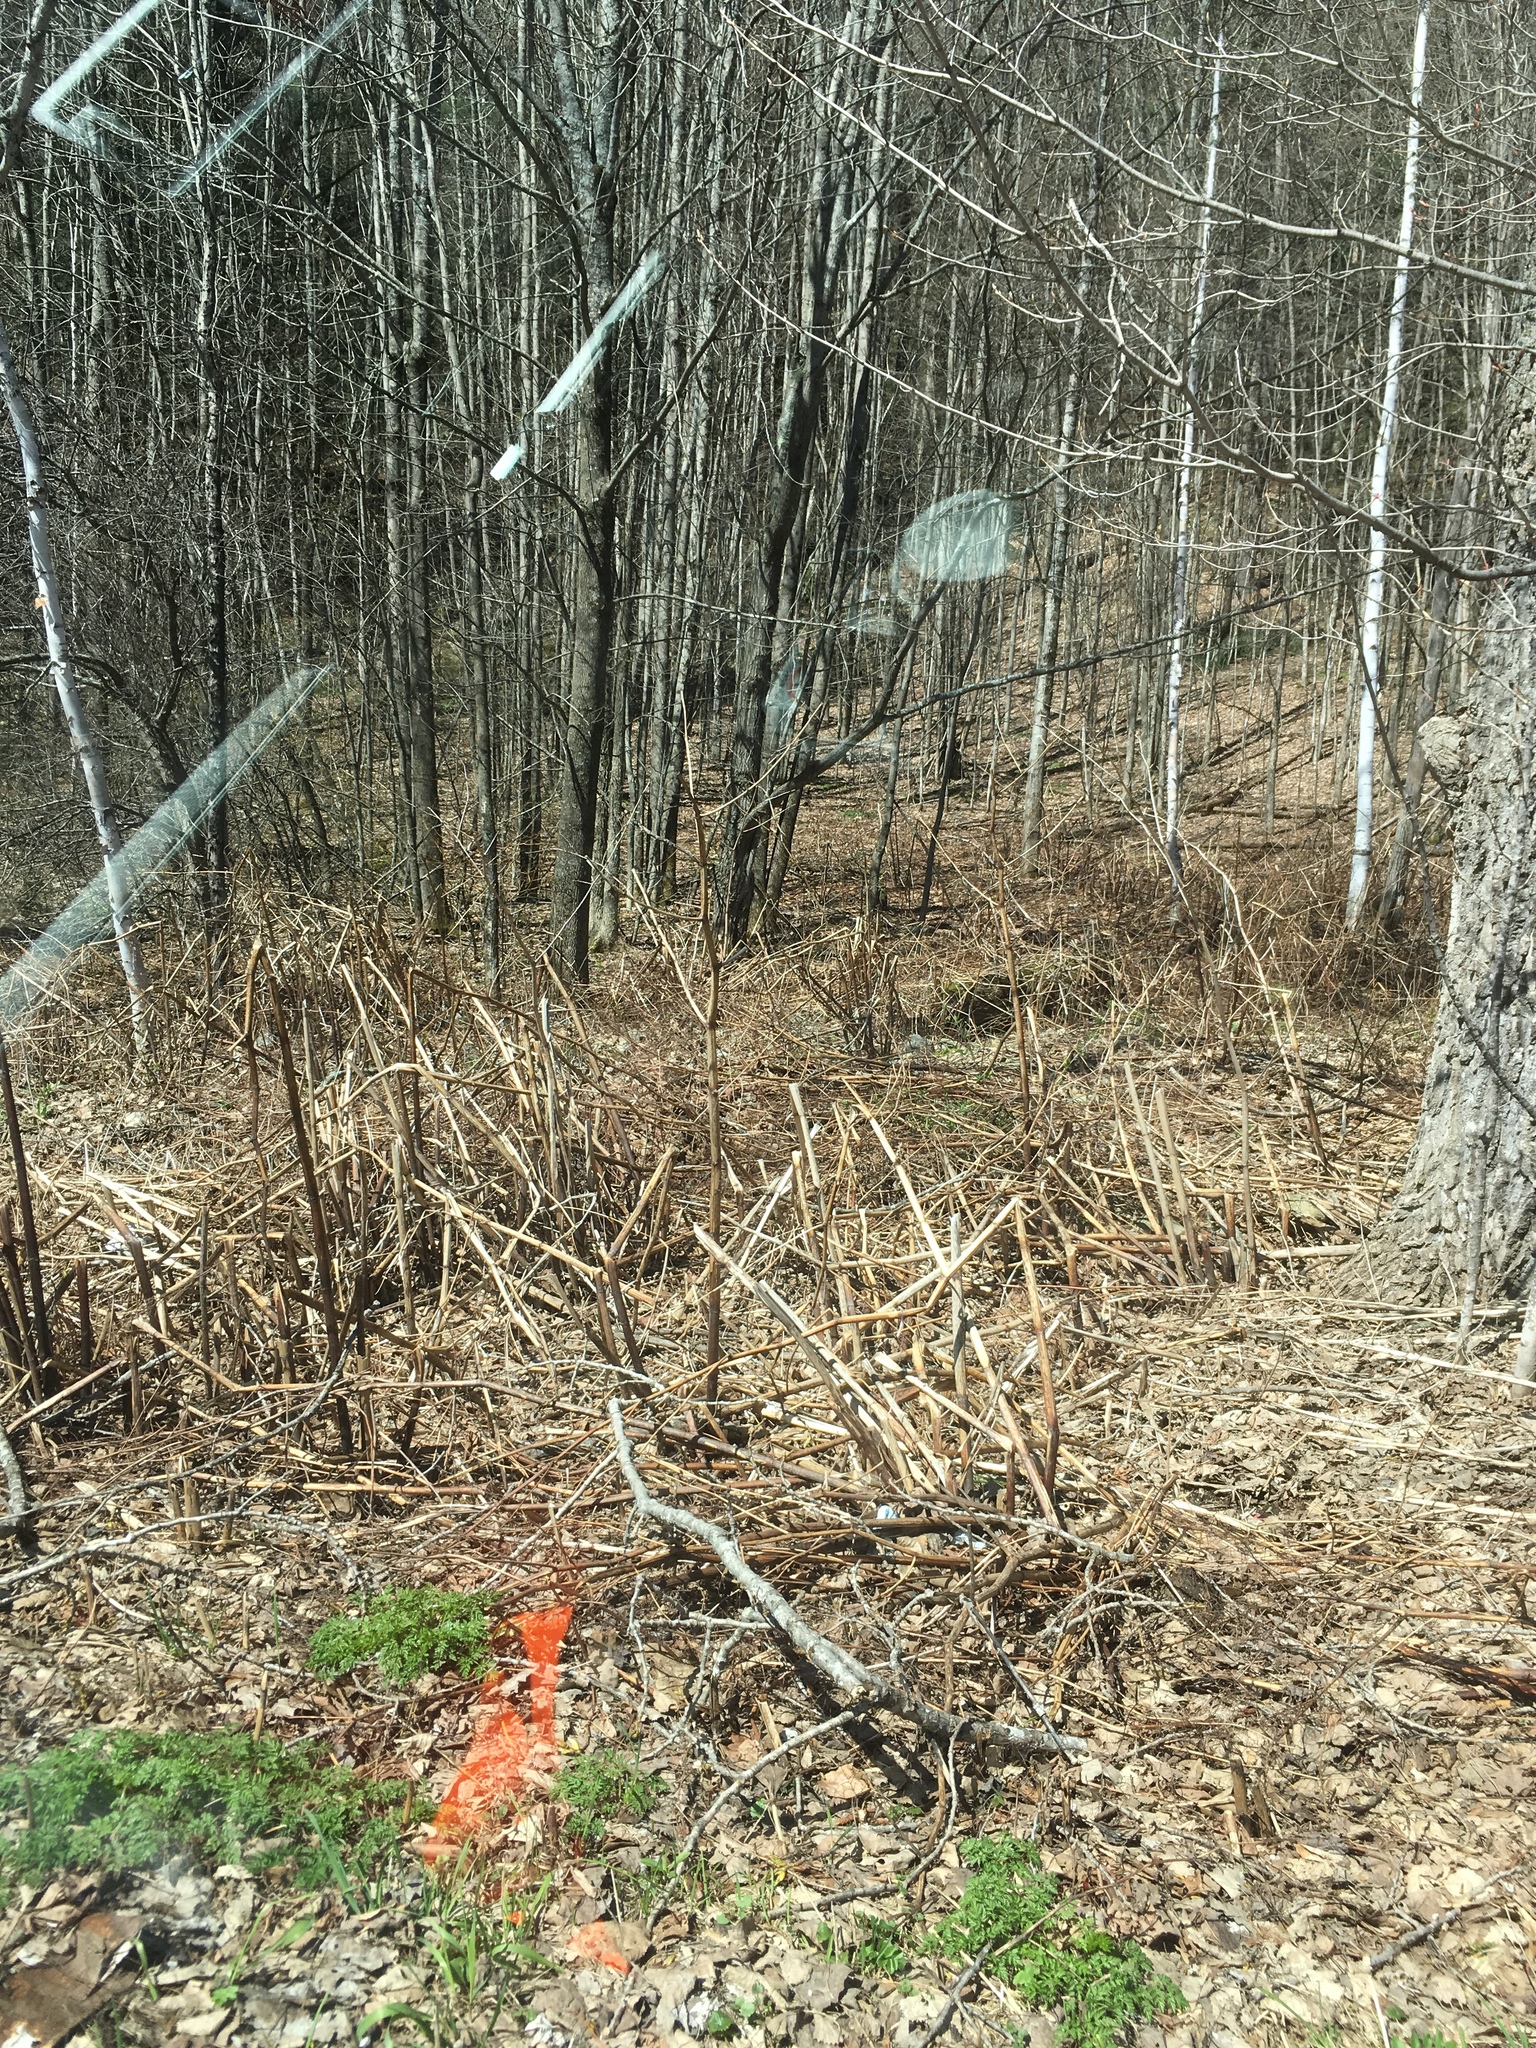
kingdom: Plantae
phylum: Tracheophyta
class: Magnoliopsida
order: Caryophyllales
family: Polygonaceae
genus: Reynoutria
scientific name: Reynoutria japonica
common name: Japanese knotweed
